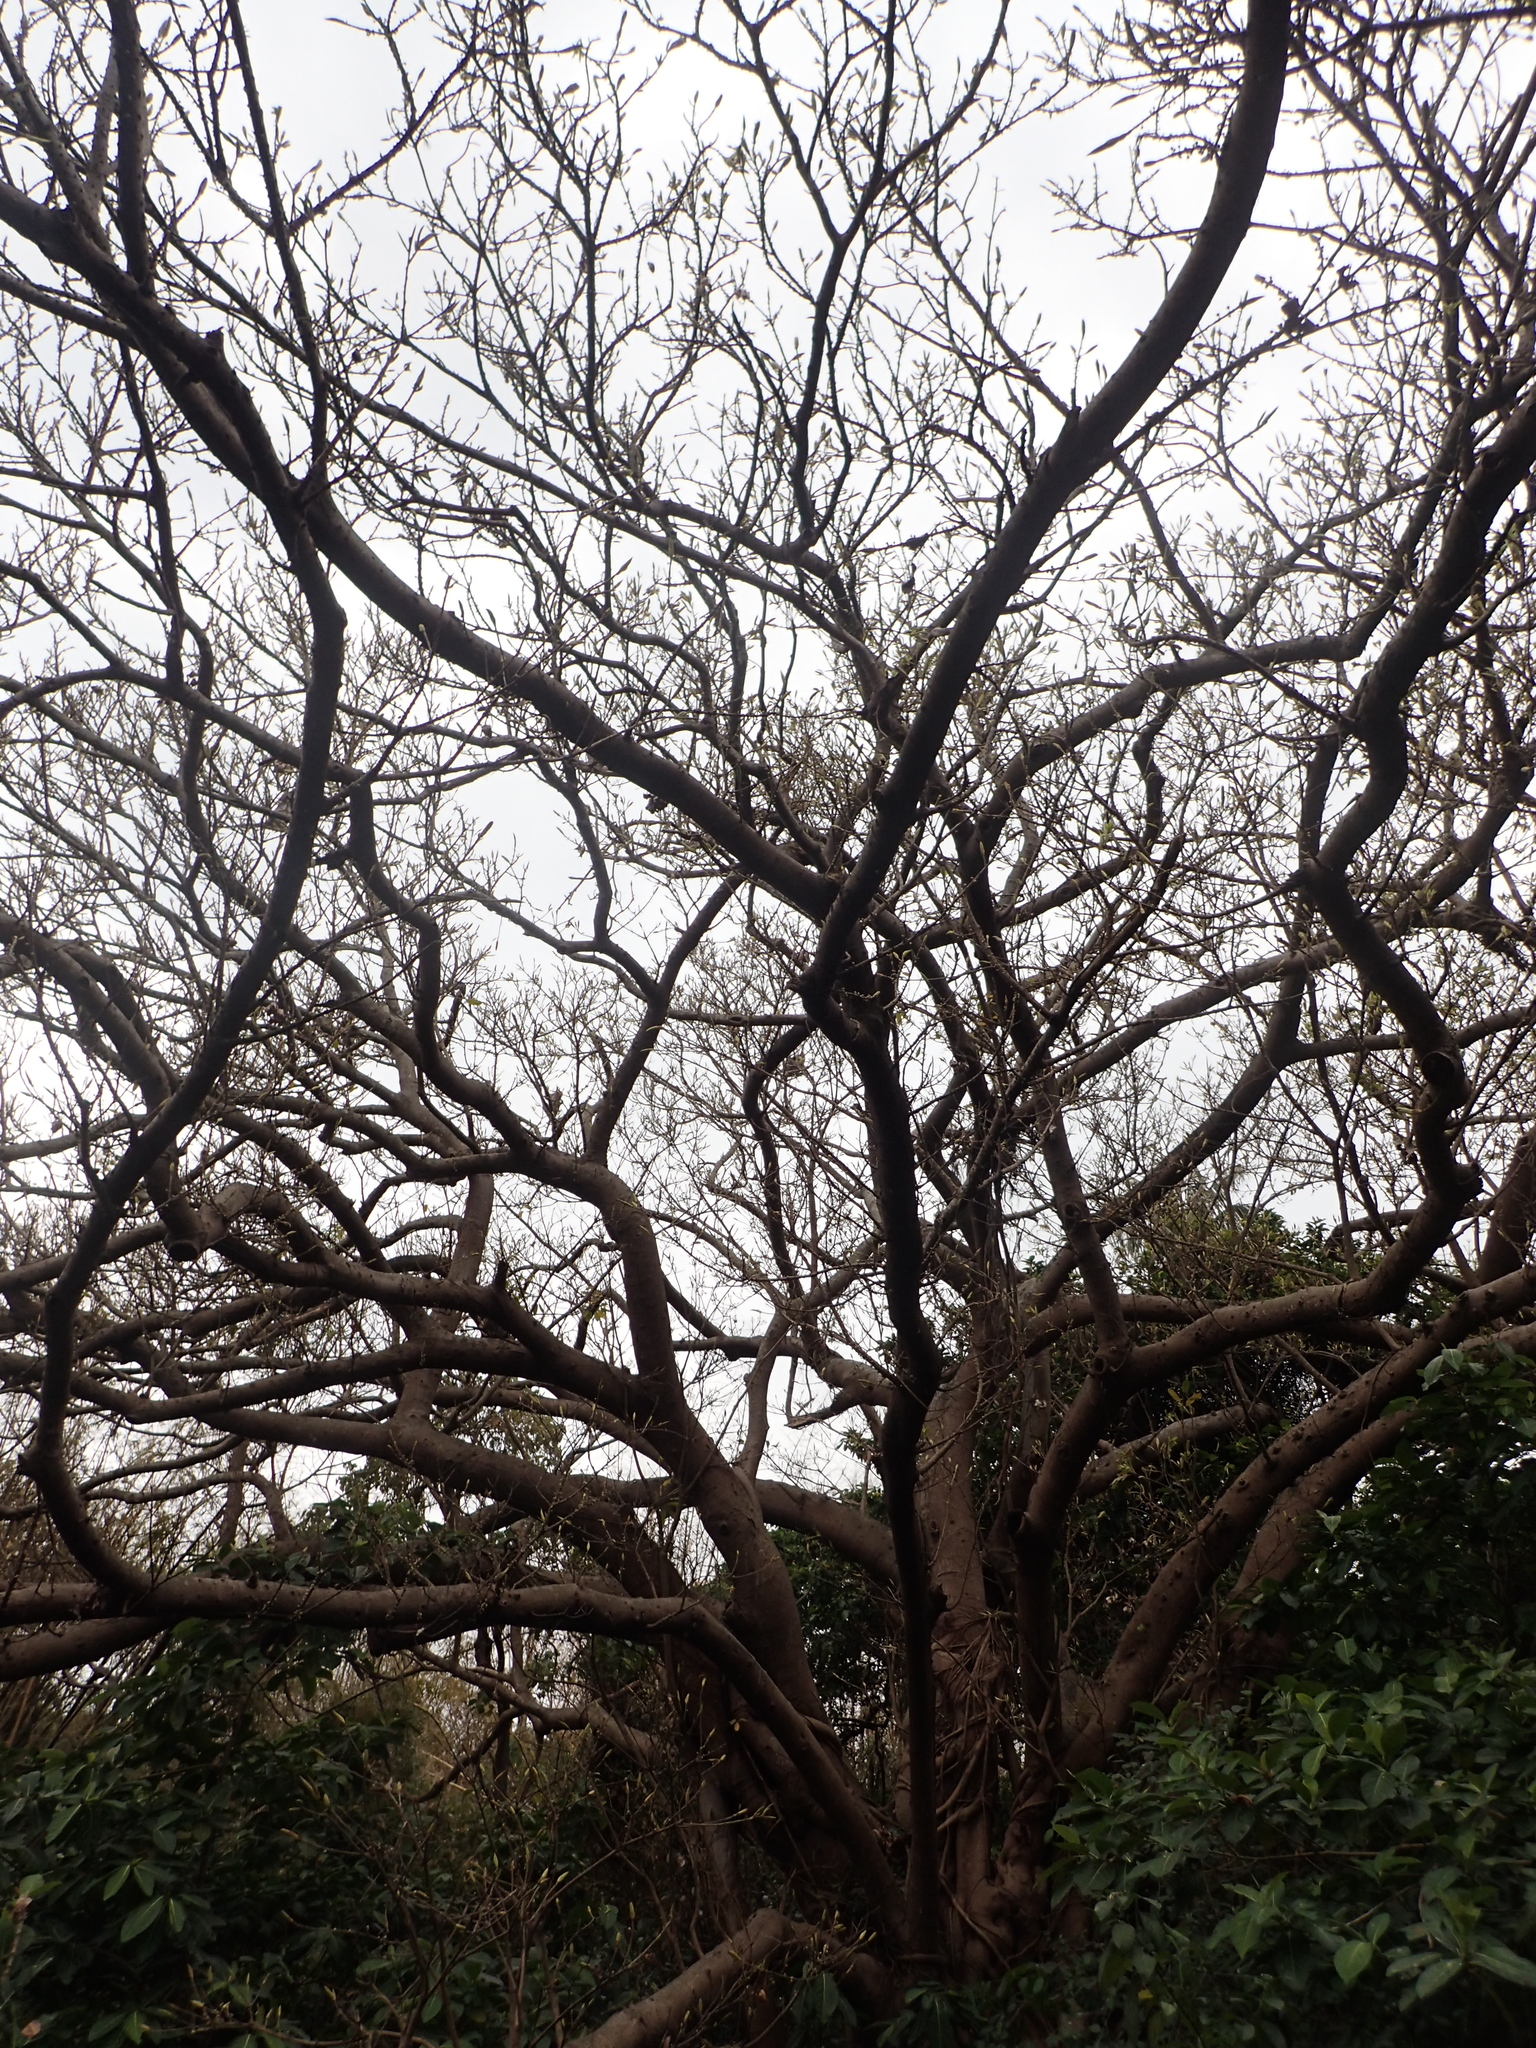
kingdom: Plantae
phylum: Tracheophyta
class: Magnoliopsida
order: Rosales
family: Moraceae
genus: Ficus
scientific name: Ficus subpisocarpa
